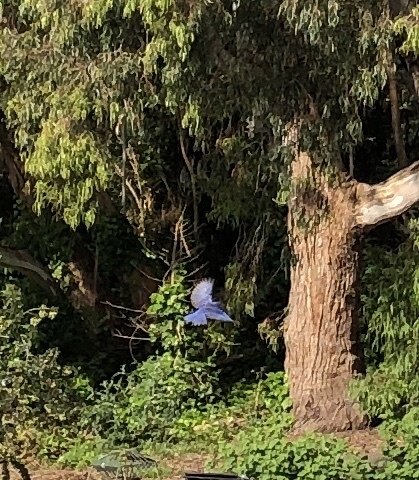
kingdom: Animalia
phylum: Chordata
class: Aves
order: Passeriformes
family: Turdidae
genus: Sialia
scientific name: Sialia mexicana
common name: Western bluebird
